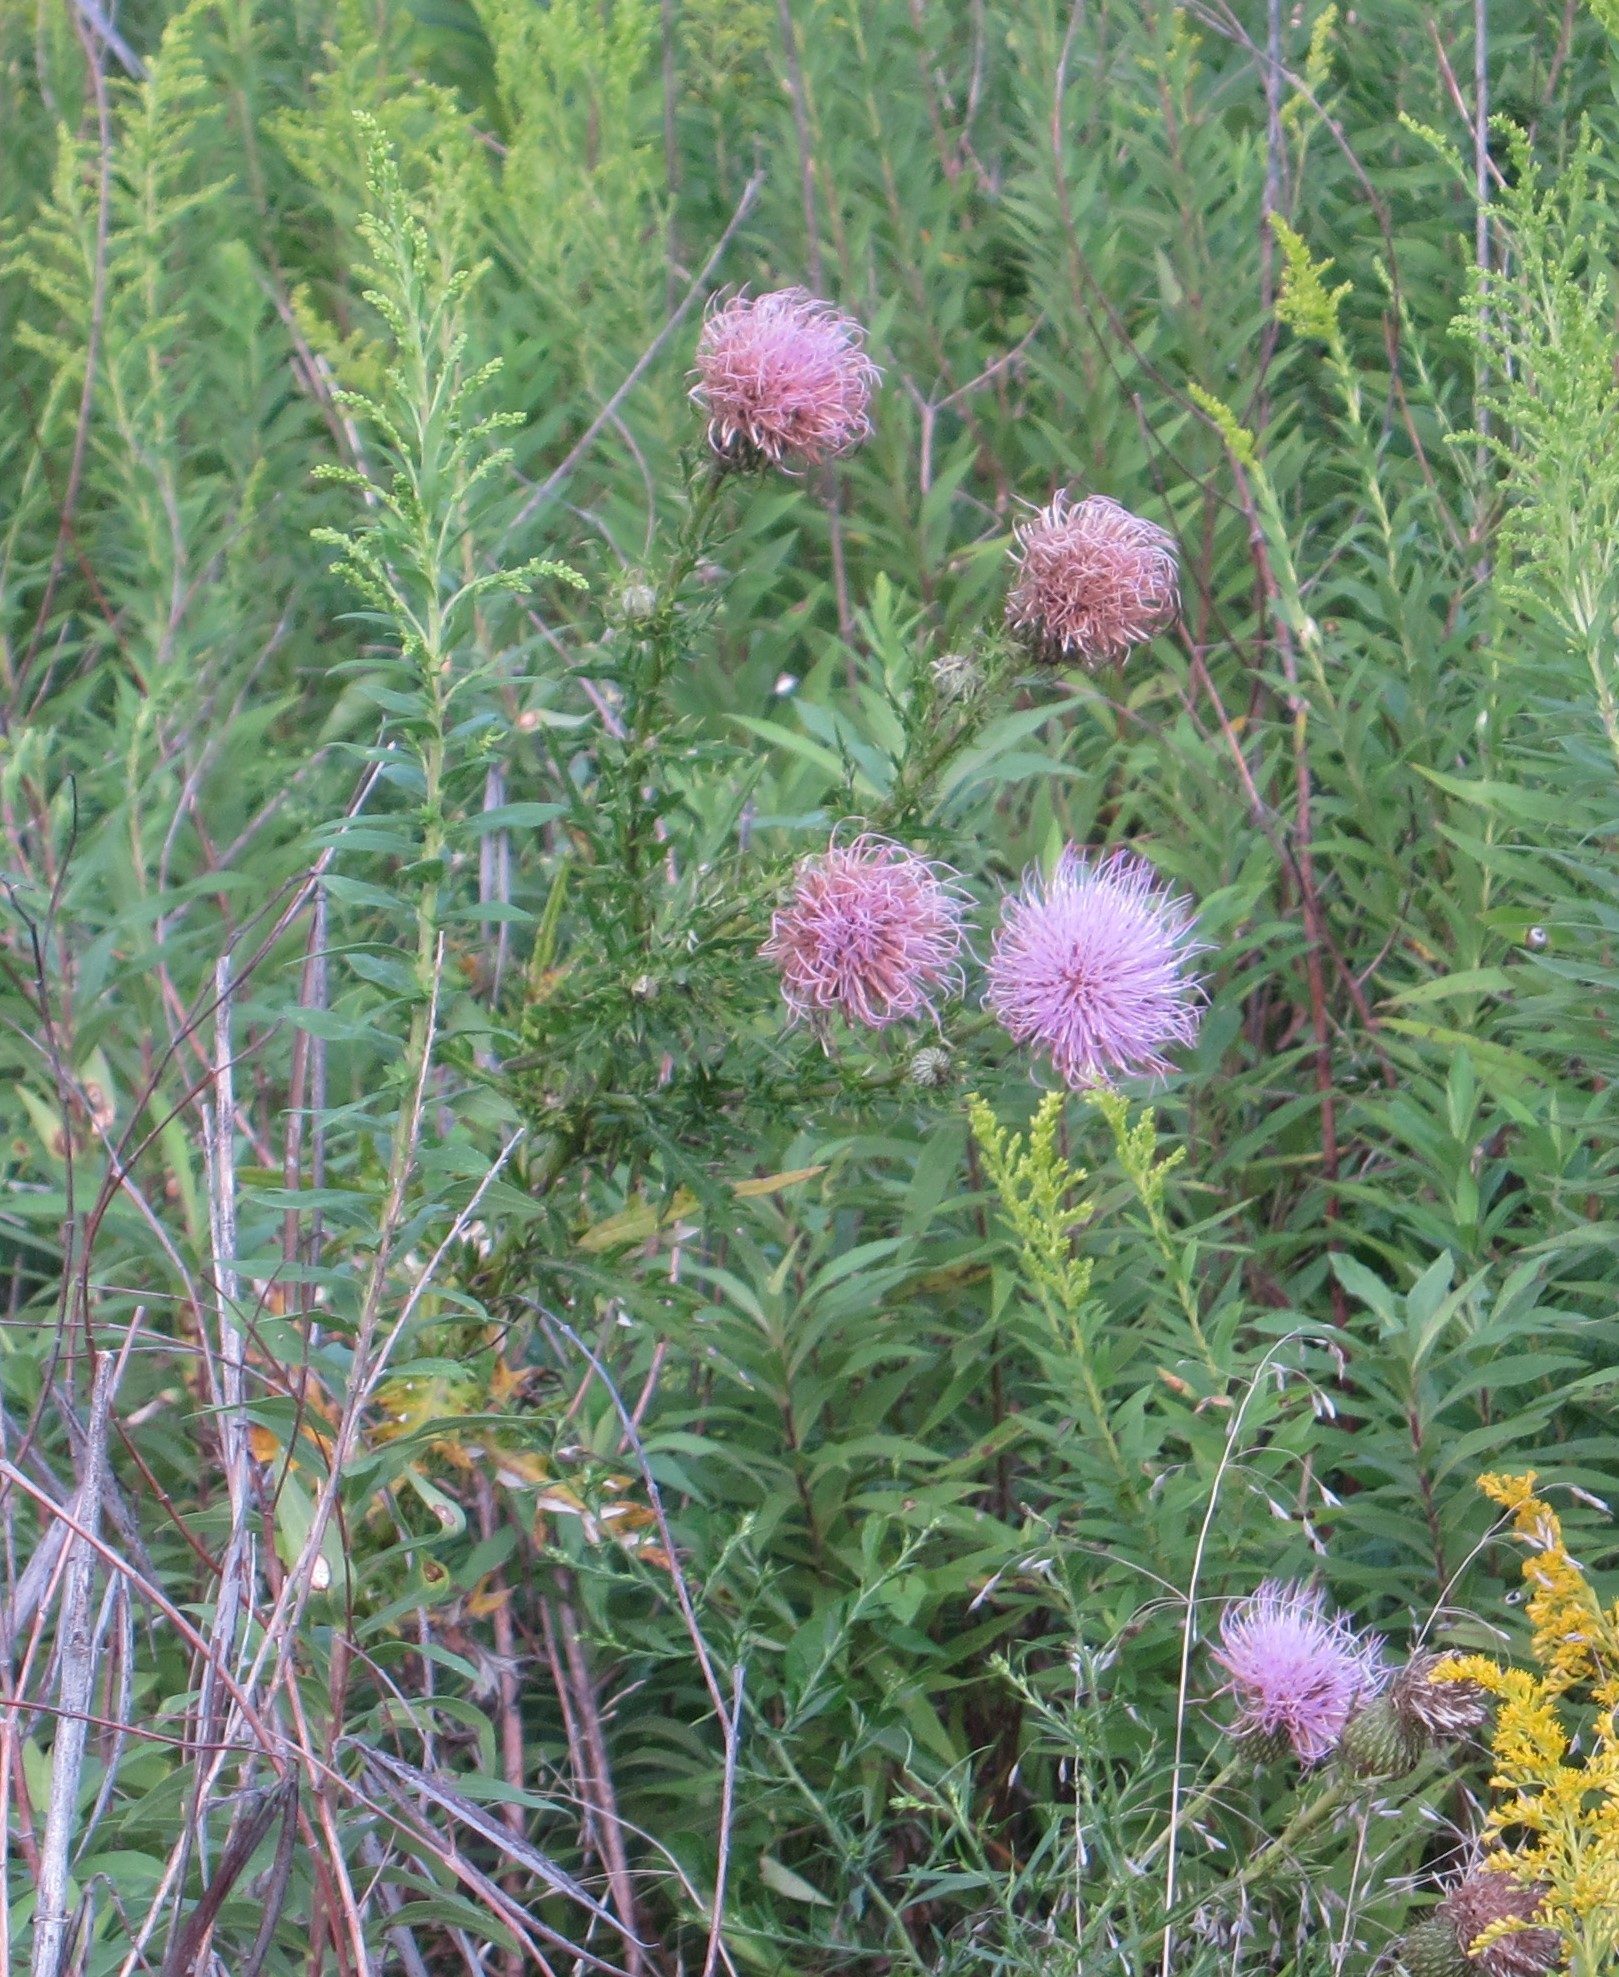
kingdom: Plantae
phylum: Tracheophyta
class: Magnoliopsida
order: Asterales
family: Asteraceae
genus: Cirsium
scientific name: Cirsium discolor
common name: Field thistle
